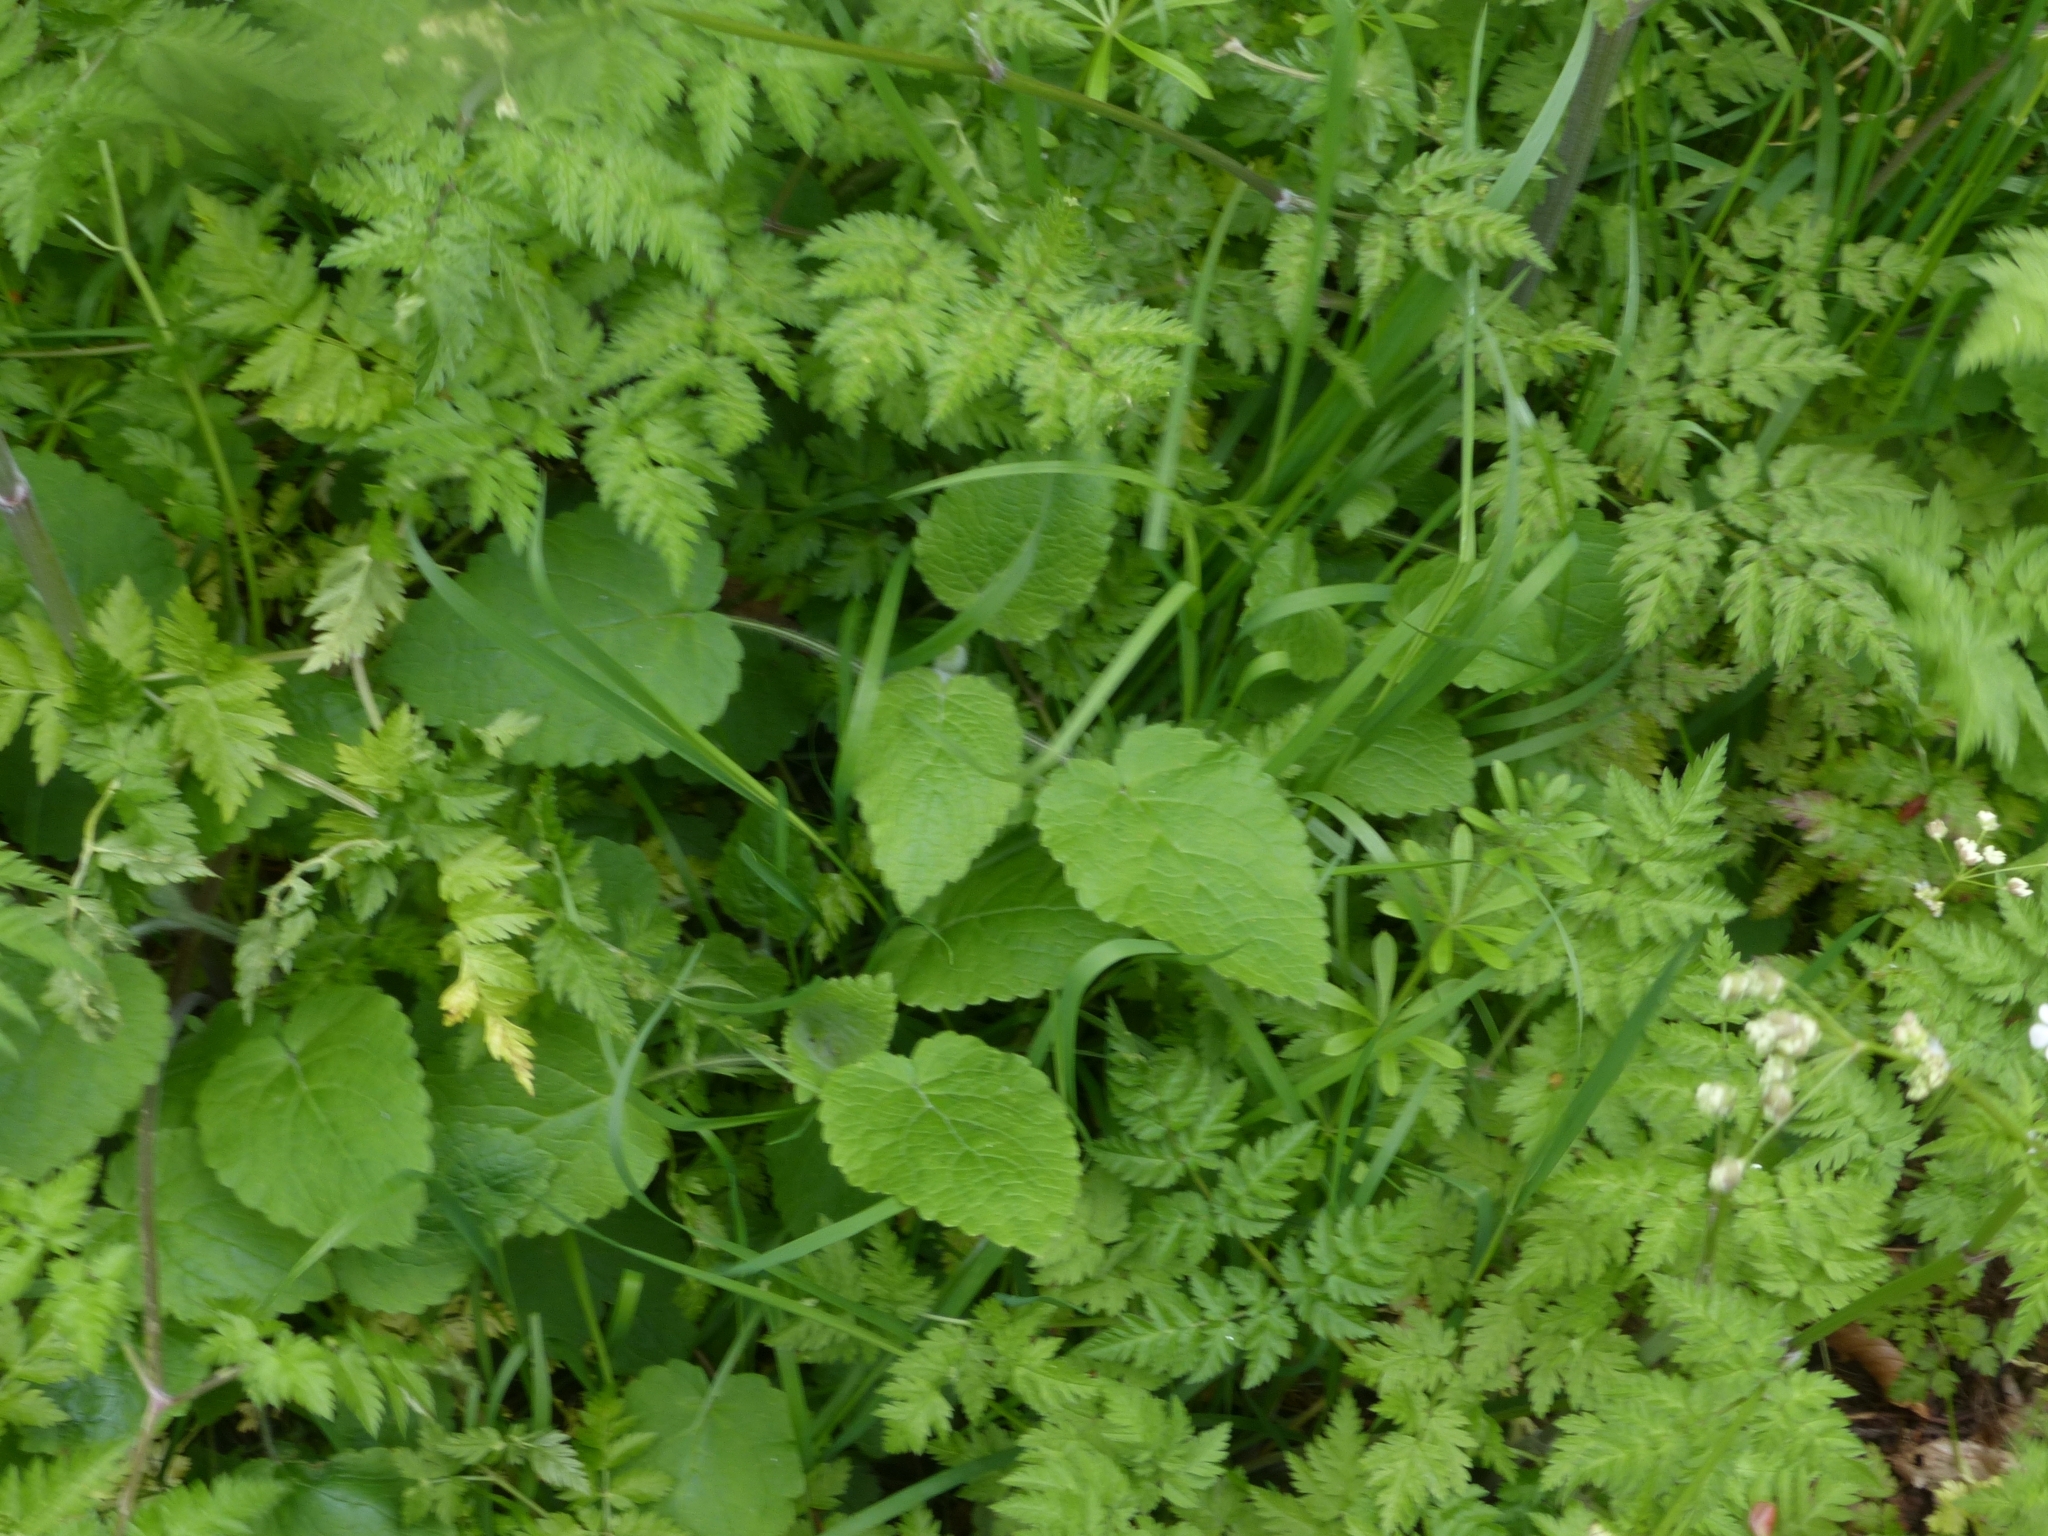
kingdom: Plantae
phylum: Tracheophyta
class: Magnoliopsida
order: Lamiales
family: Lamiaceae
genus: Stachys
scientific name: Stachys sylvatica
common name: Hedge woundwort
